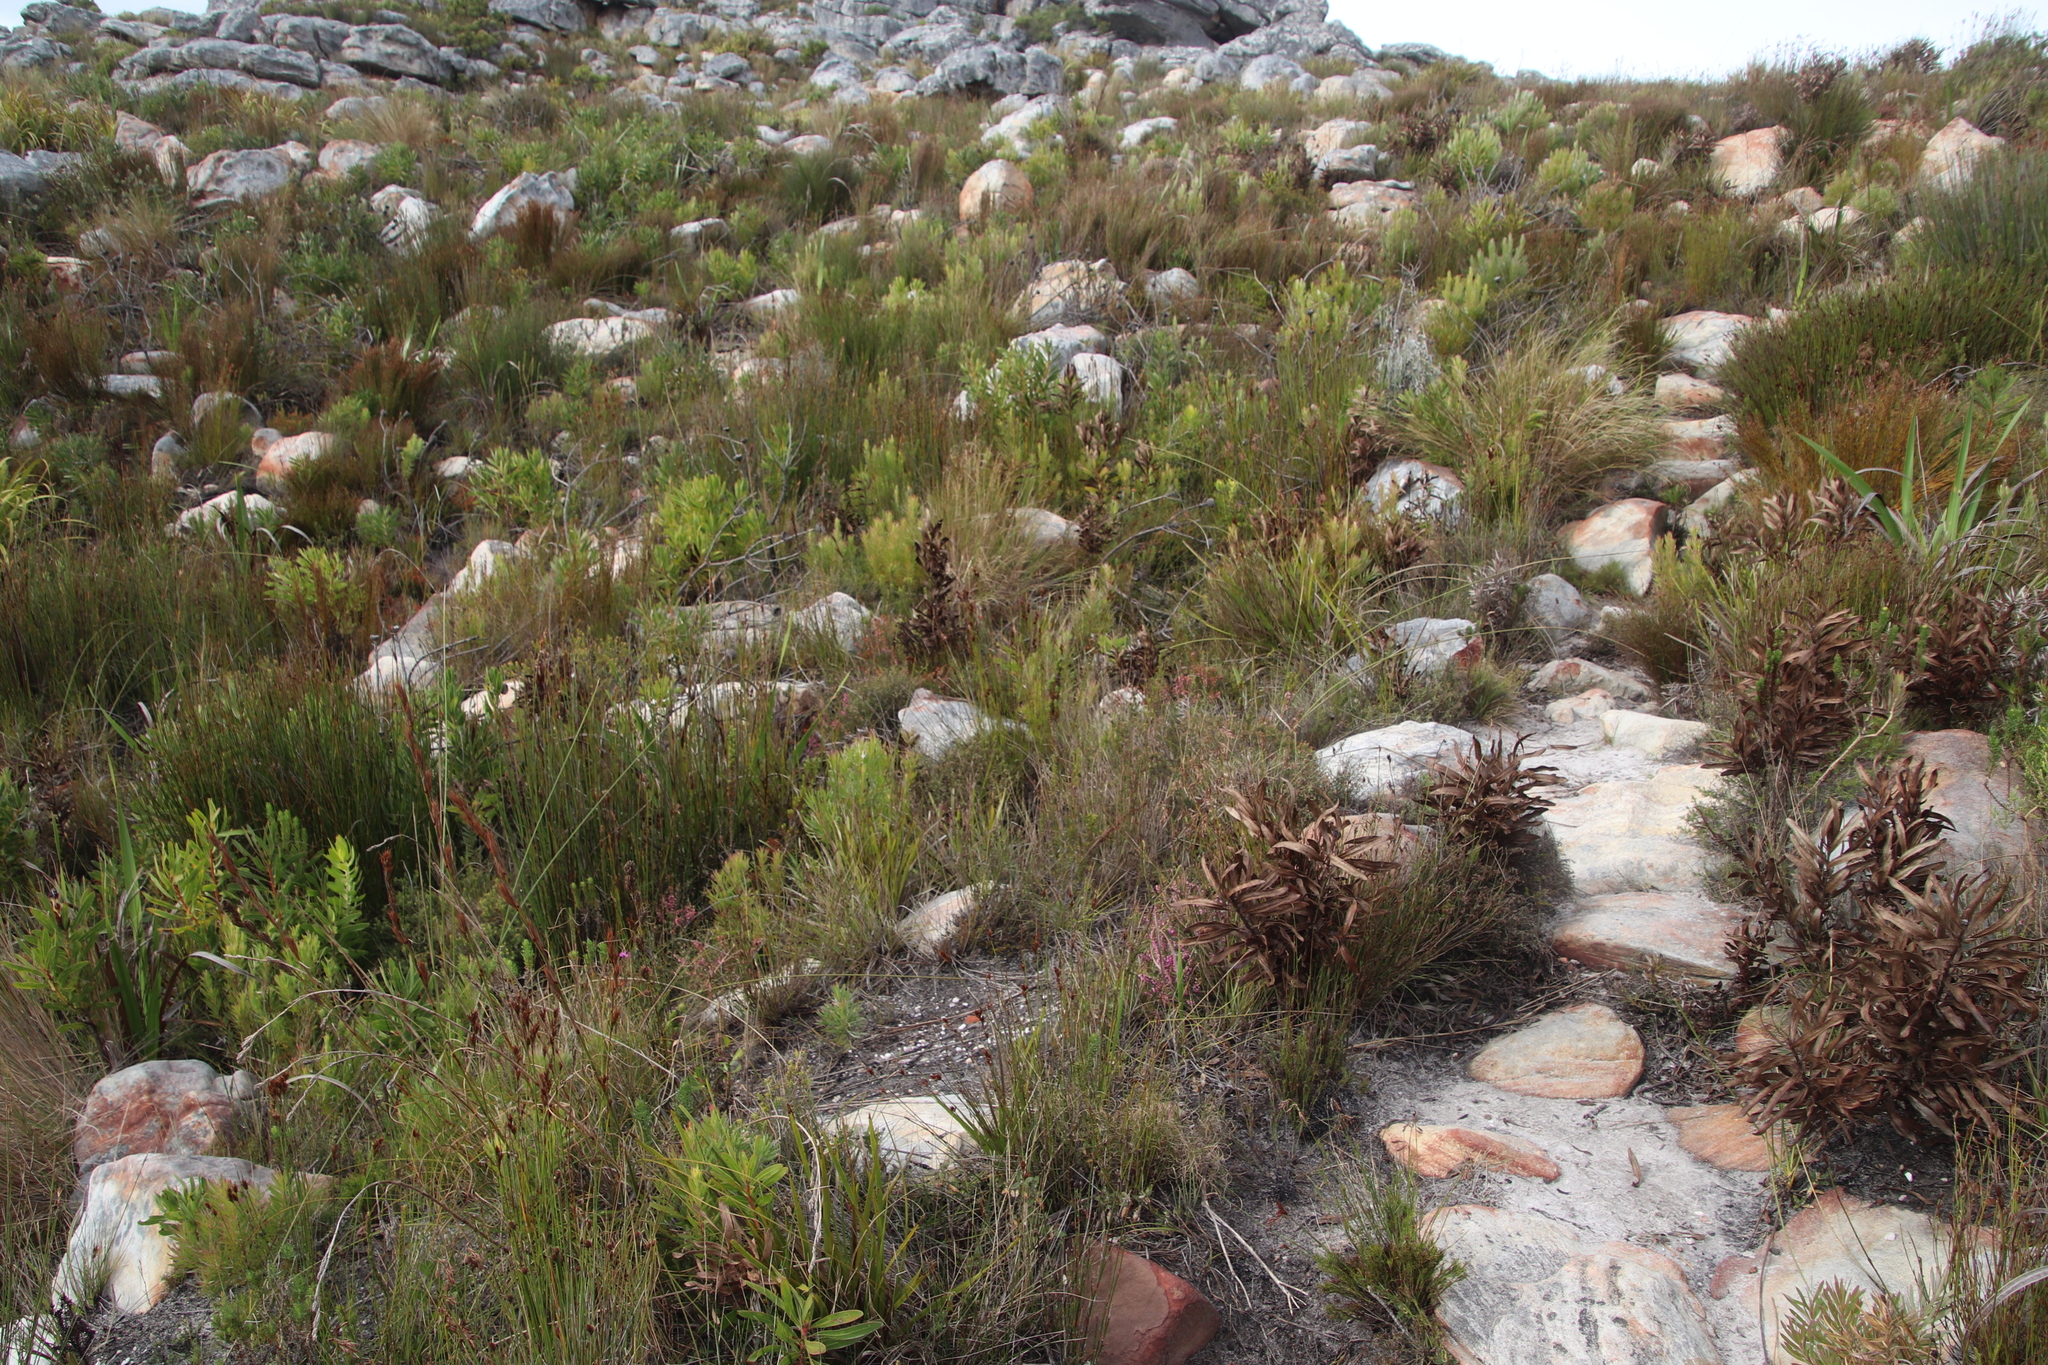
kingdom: Plantae
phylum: Tracheophyta
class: Magnoliopsida
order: Proteales
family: Proteaceae
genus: Protea
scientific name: Protea lepidocarpodendron
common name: Black-bearded protea
